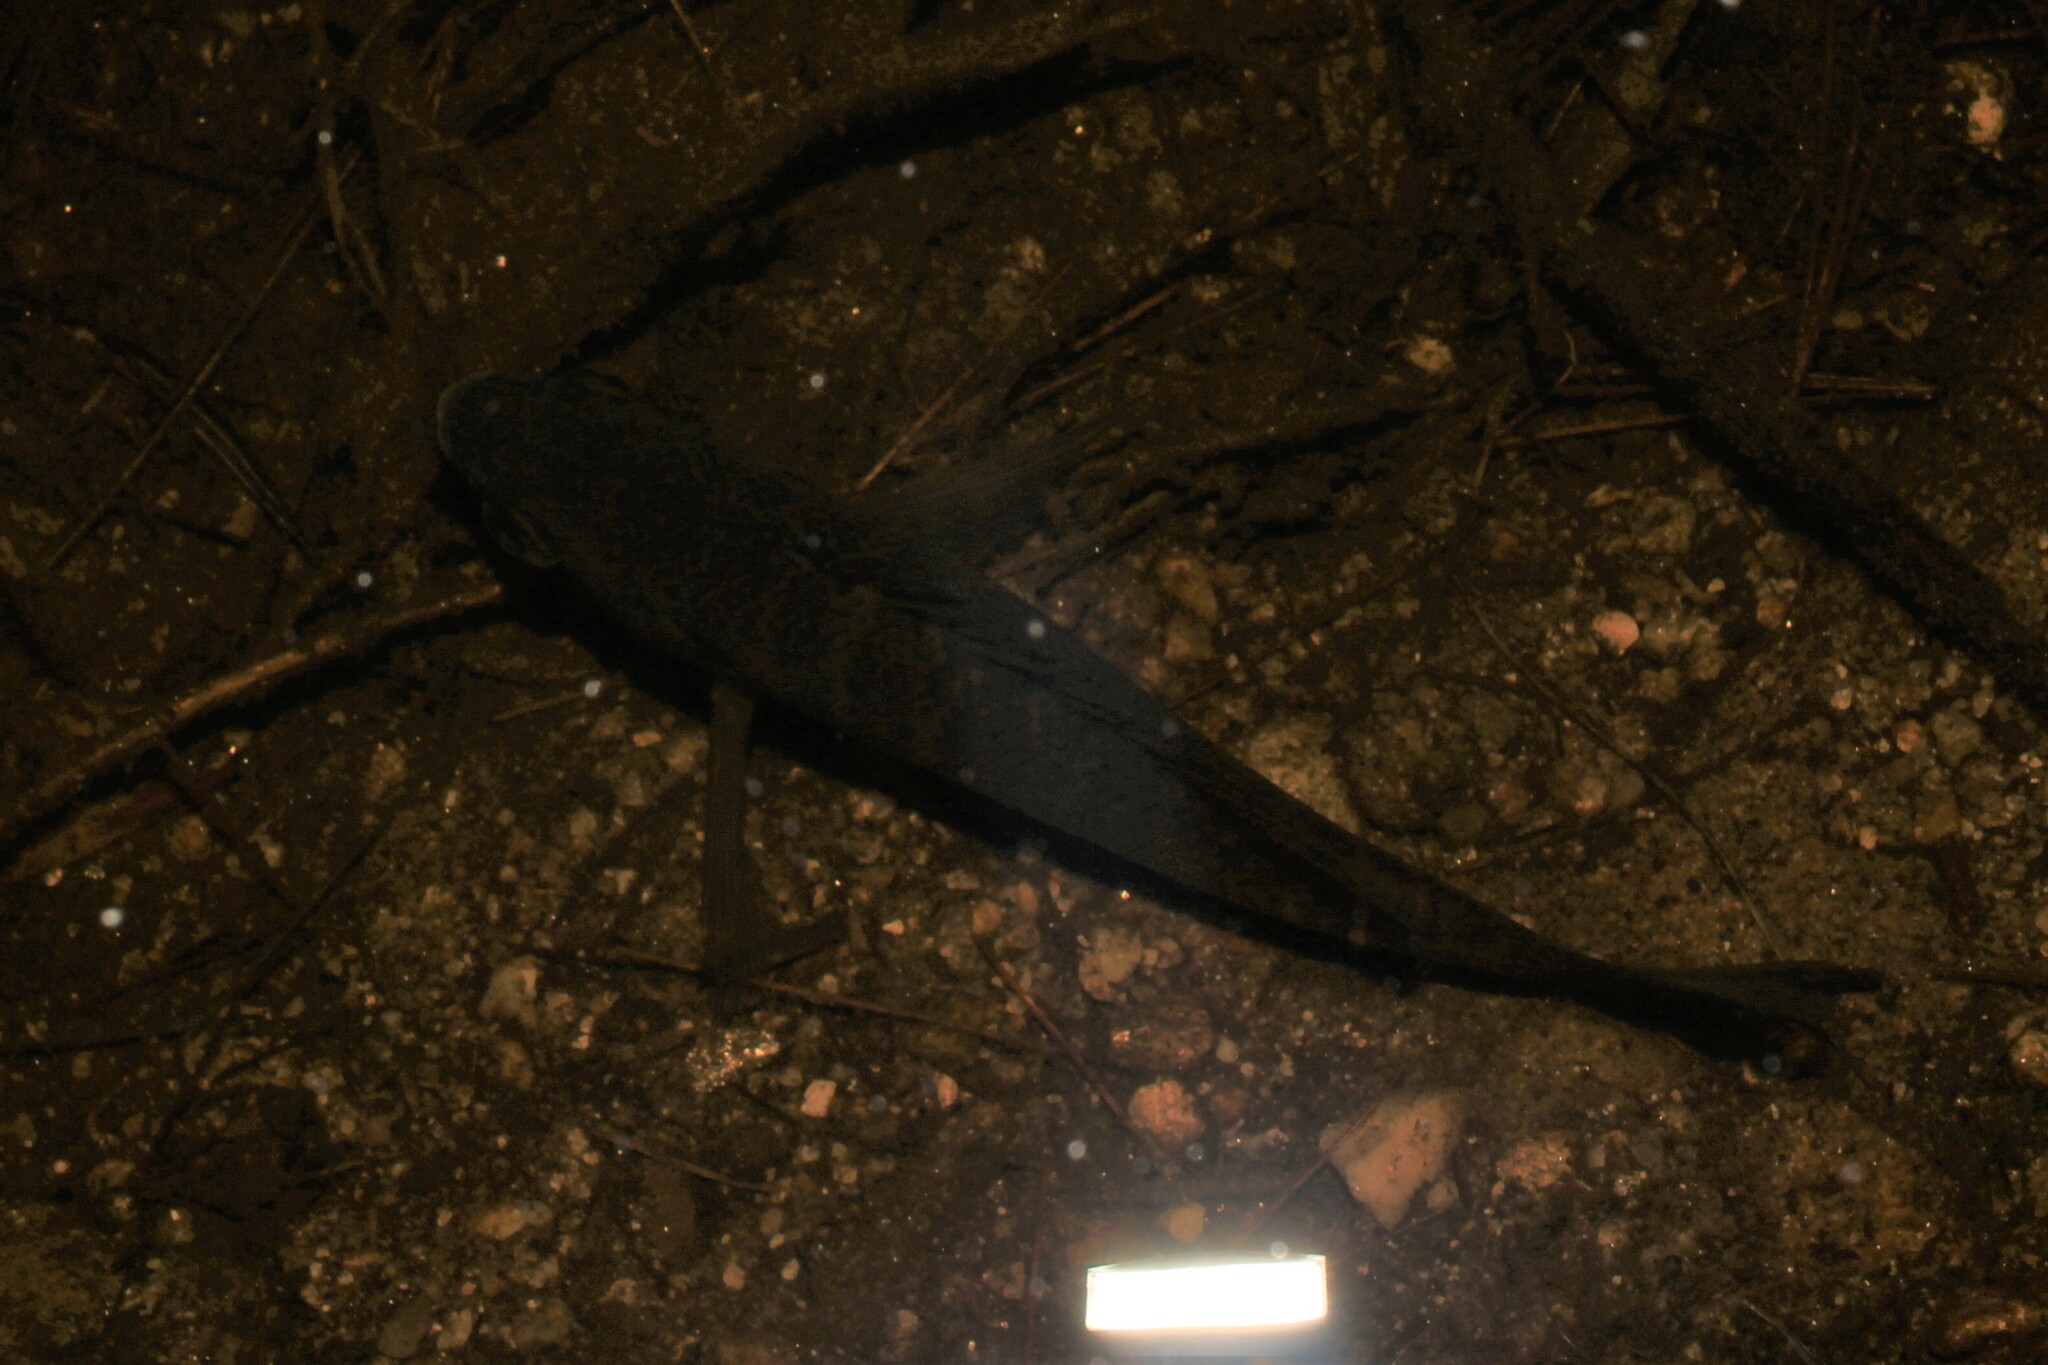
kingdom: Animalia
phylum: Chordata
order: Perciformes
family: Centrarchidae
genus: Lepomis
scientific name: Lepomis macrochirus
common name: Bluegill
